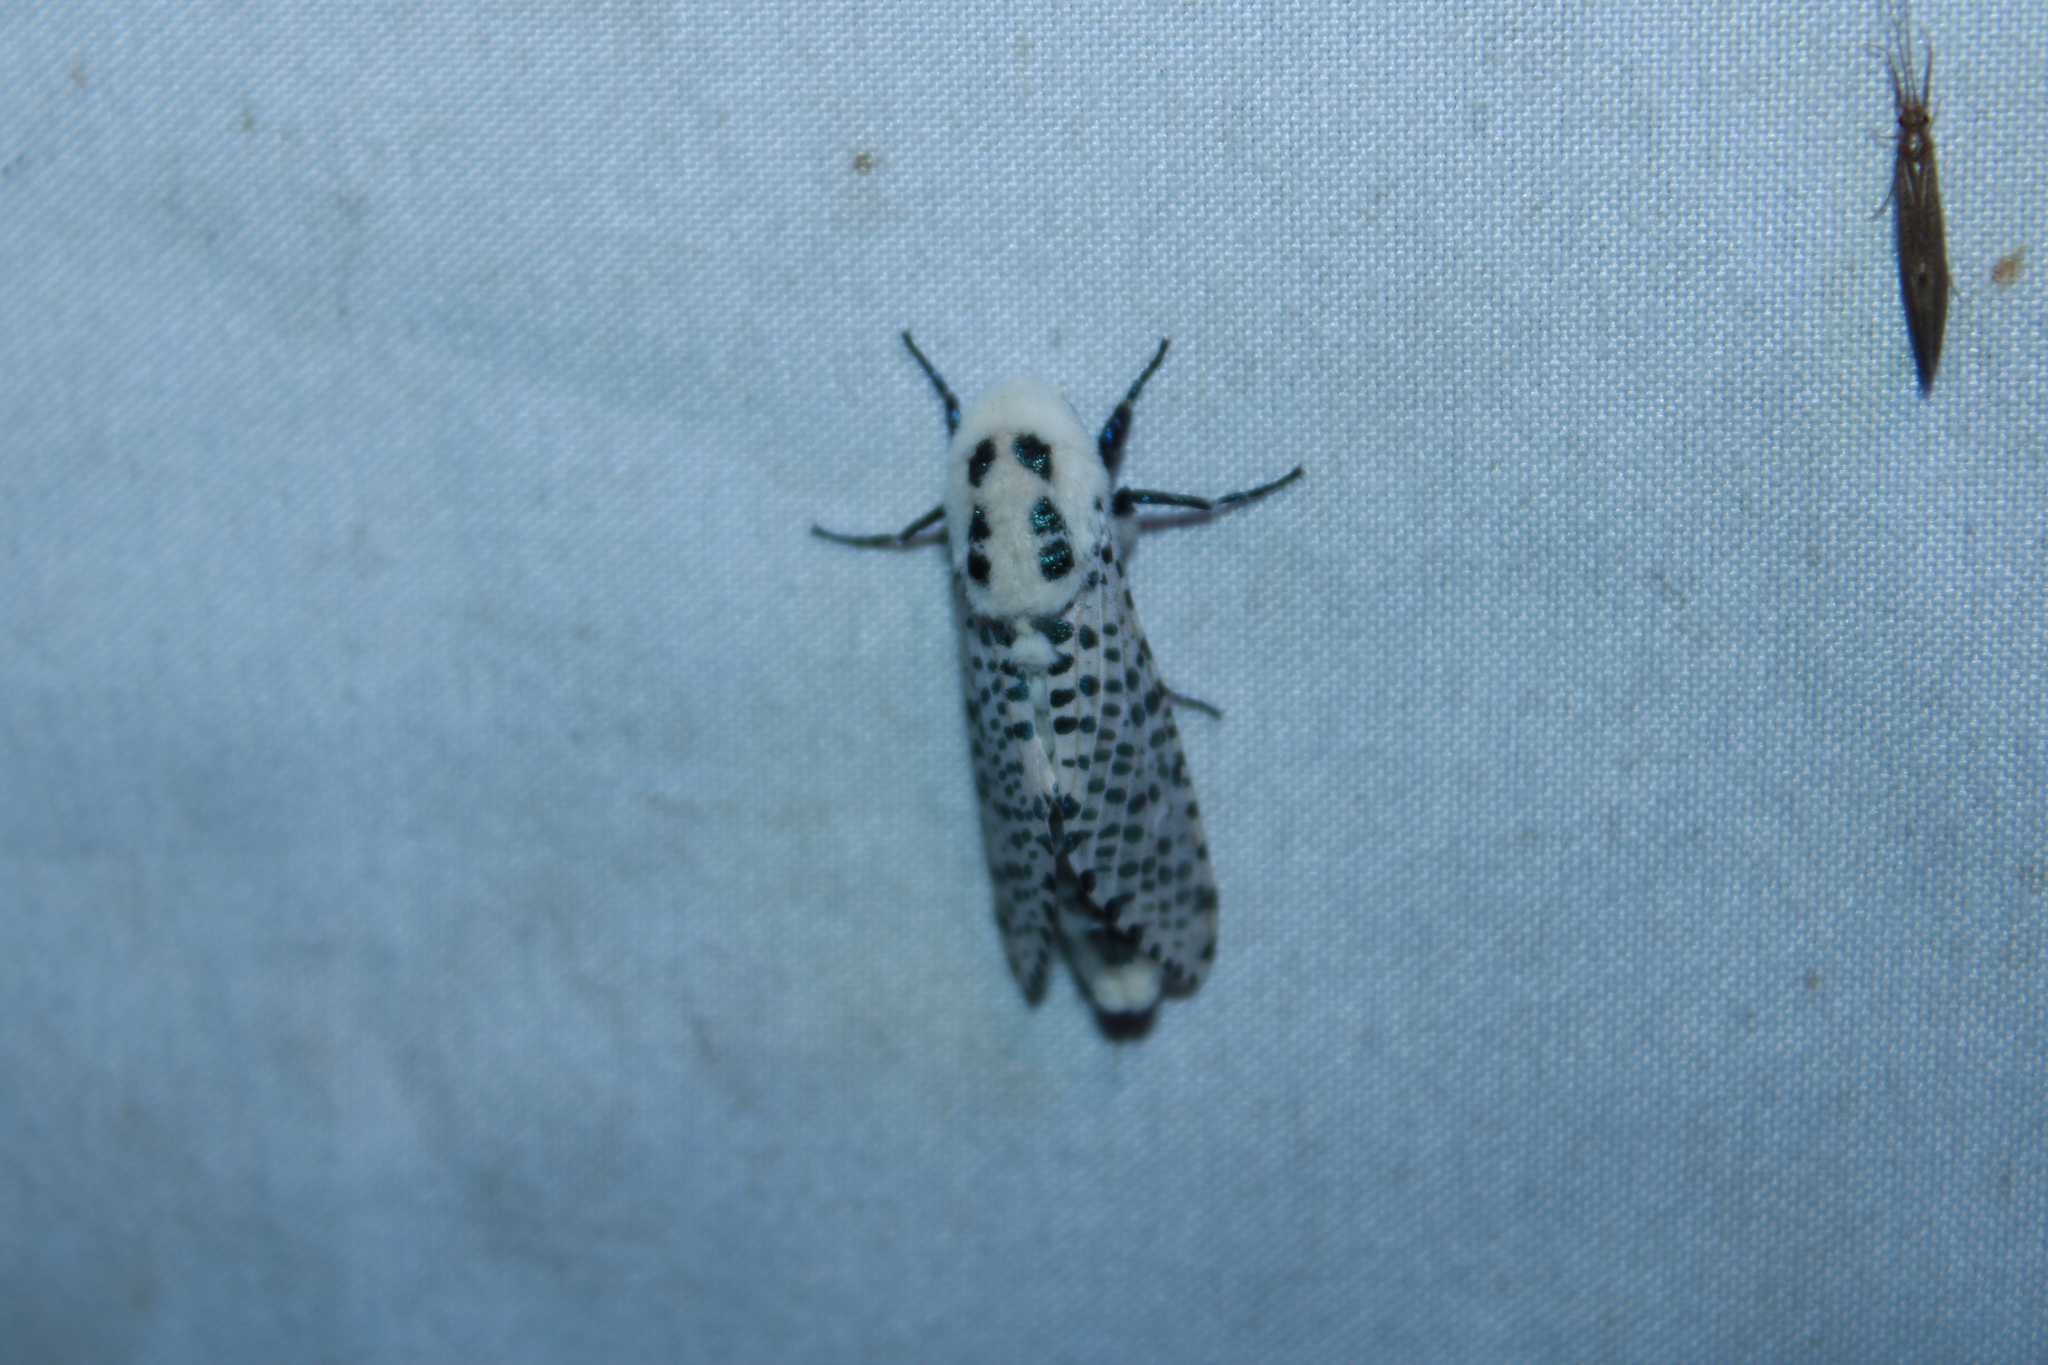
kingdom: Animalia
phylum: Arthropoda
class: Insecta
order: Lepidoptera
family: Cossidae
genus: Zeuzera
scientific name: Zeuzera pyrina
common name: Leopard moth
